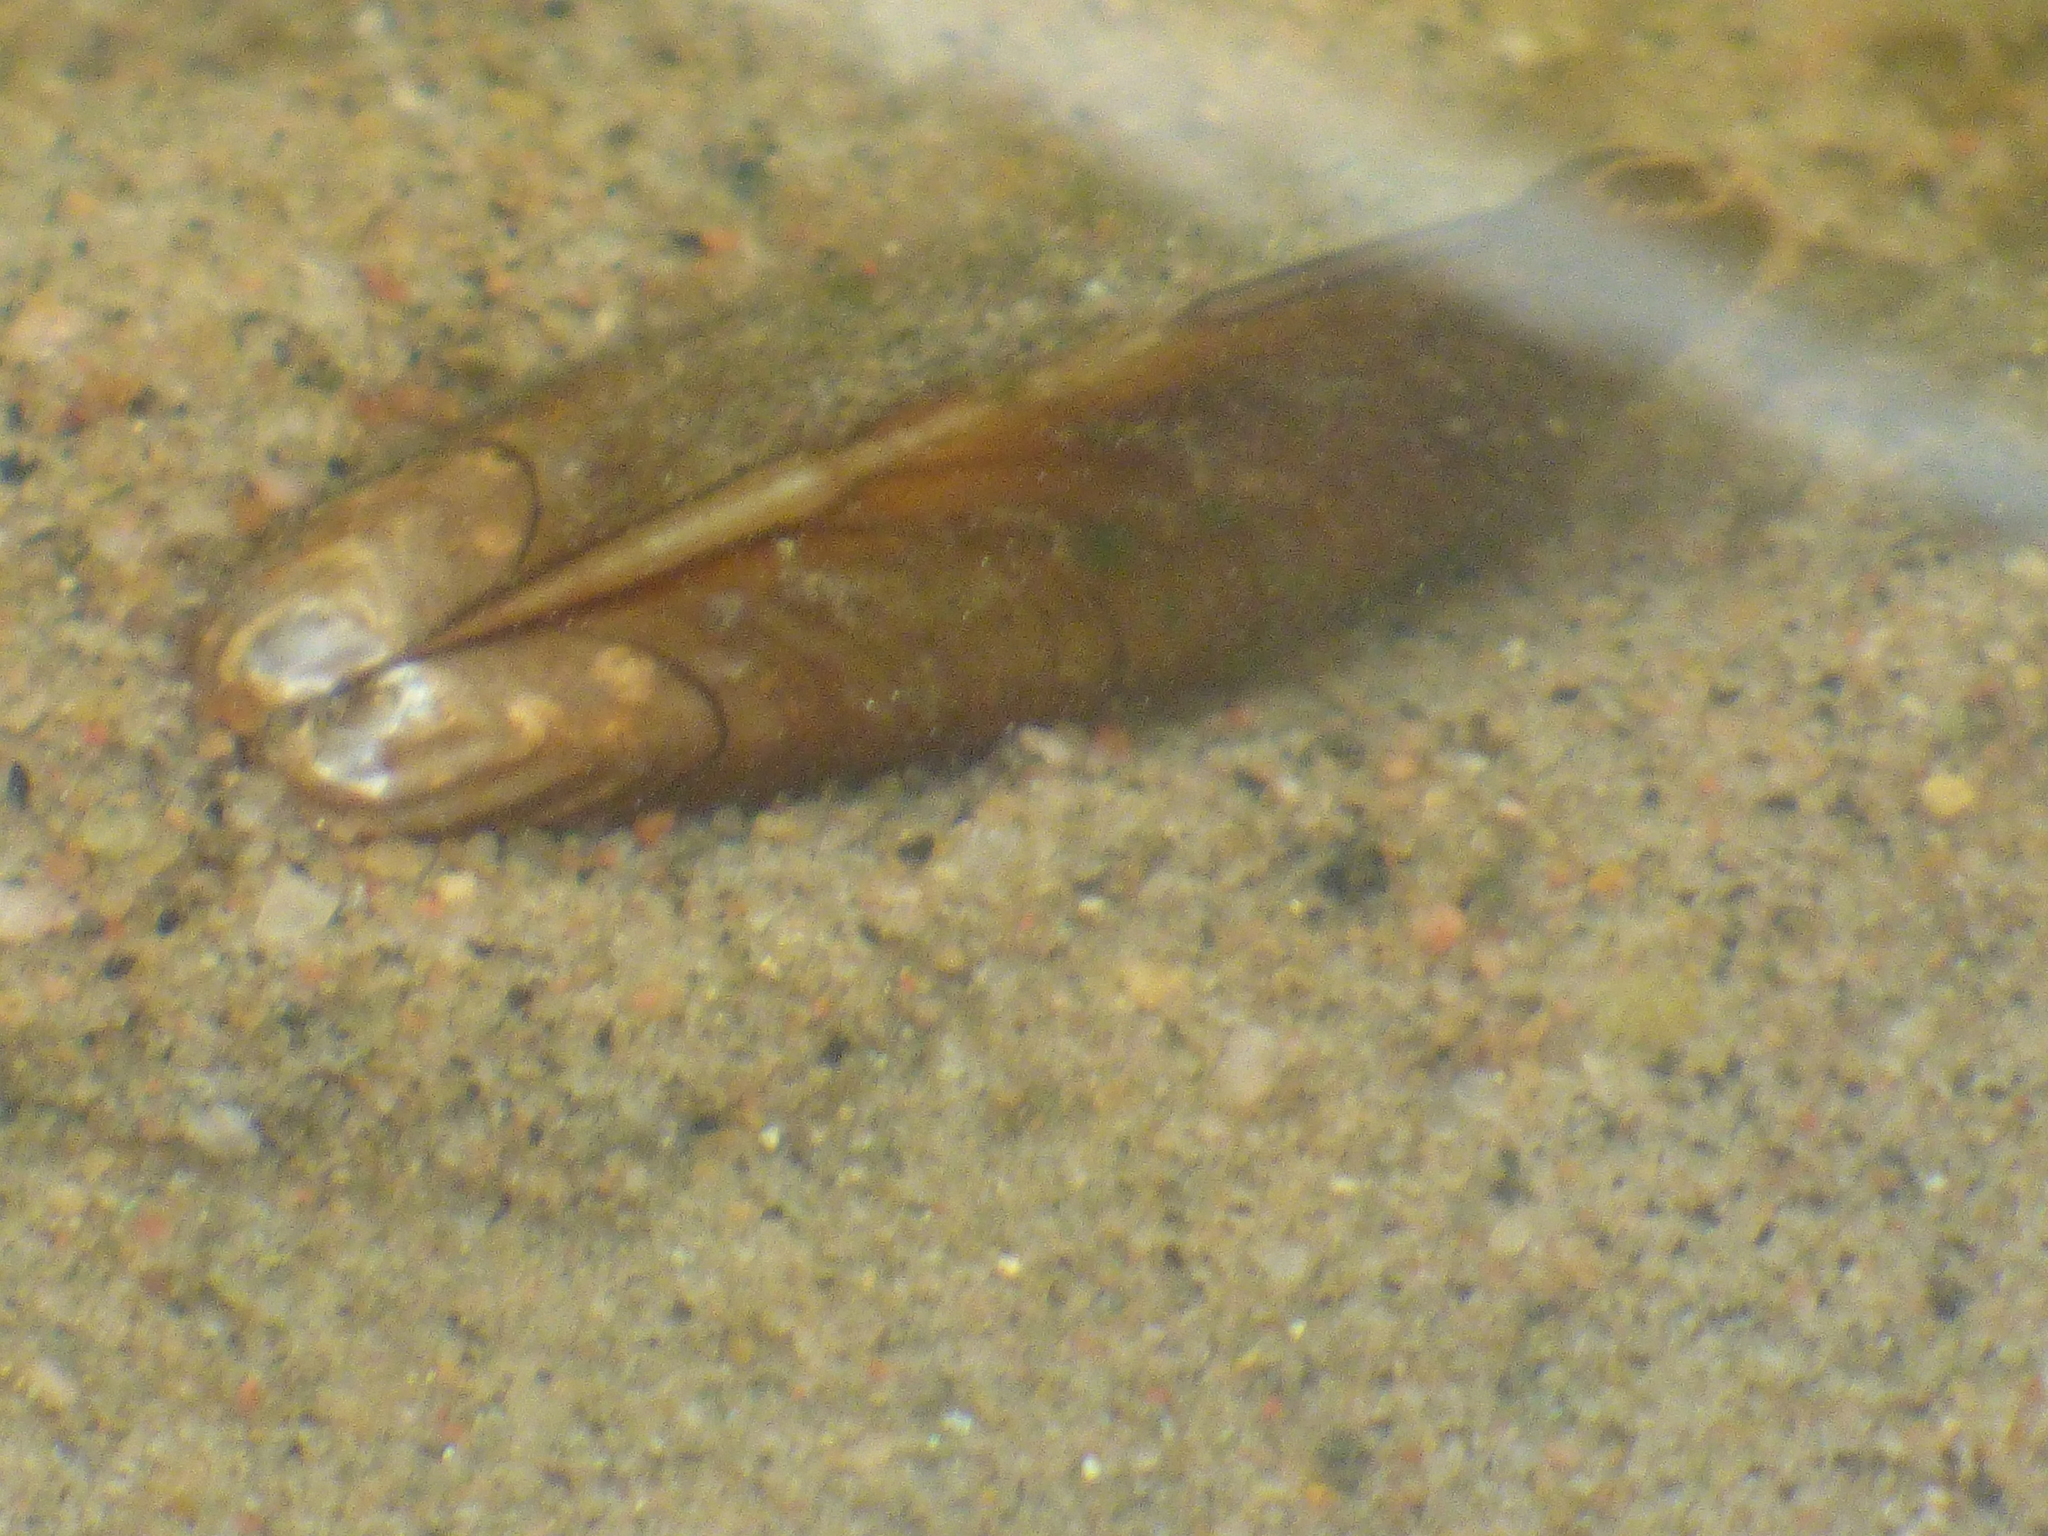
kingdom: Animalia
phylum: Mollusca
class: Bivalvia
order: Unionida
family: Unionidae
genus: Elliptio
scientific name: Elliptio complanata
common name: Eastern elliptio
